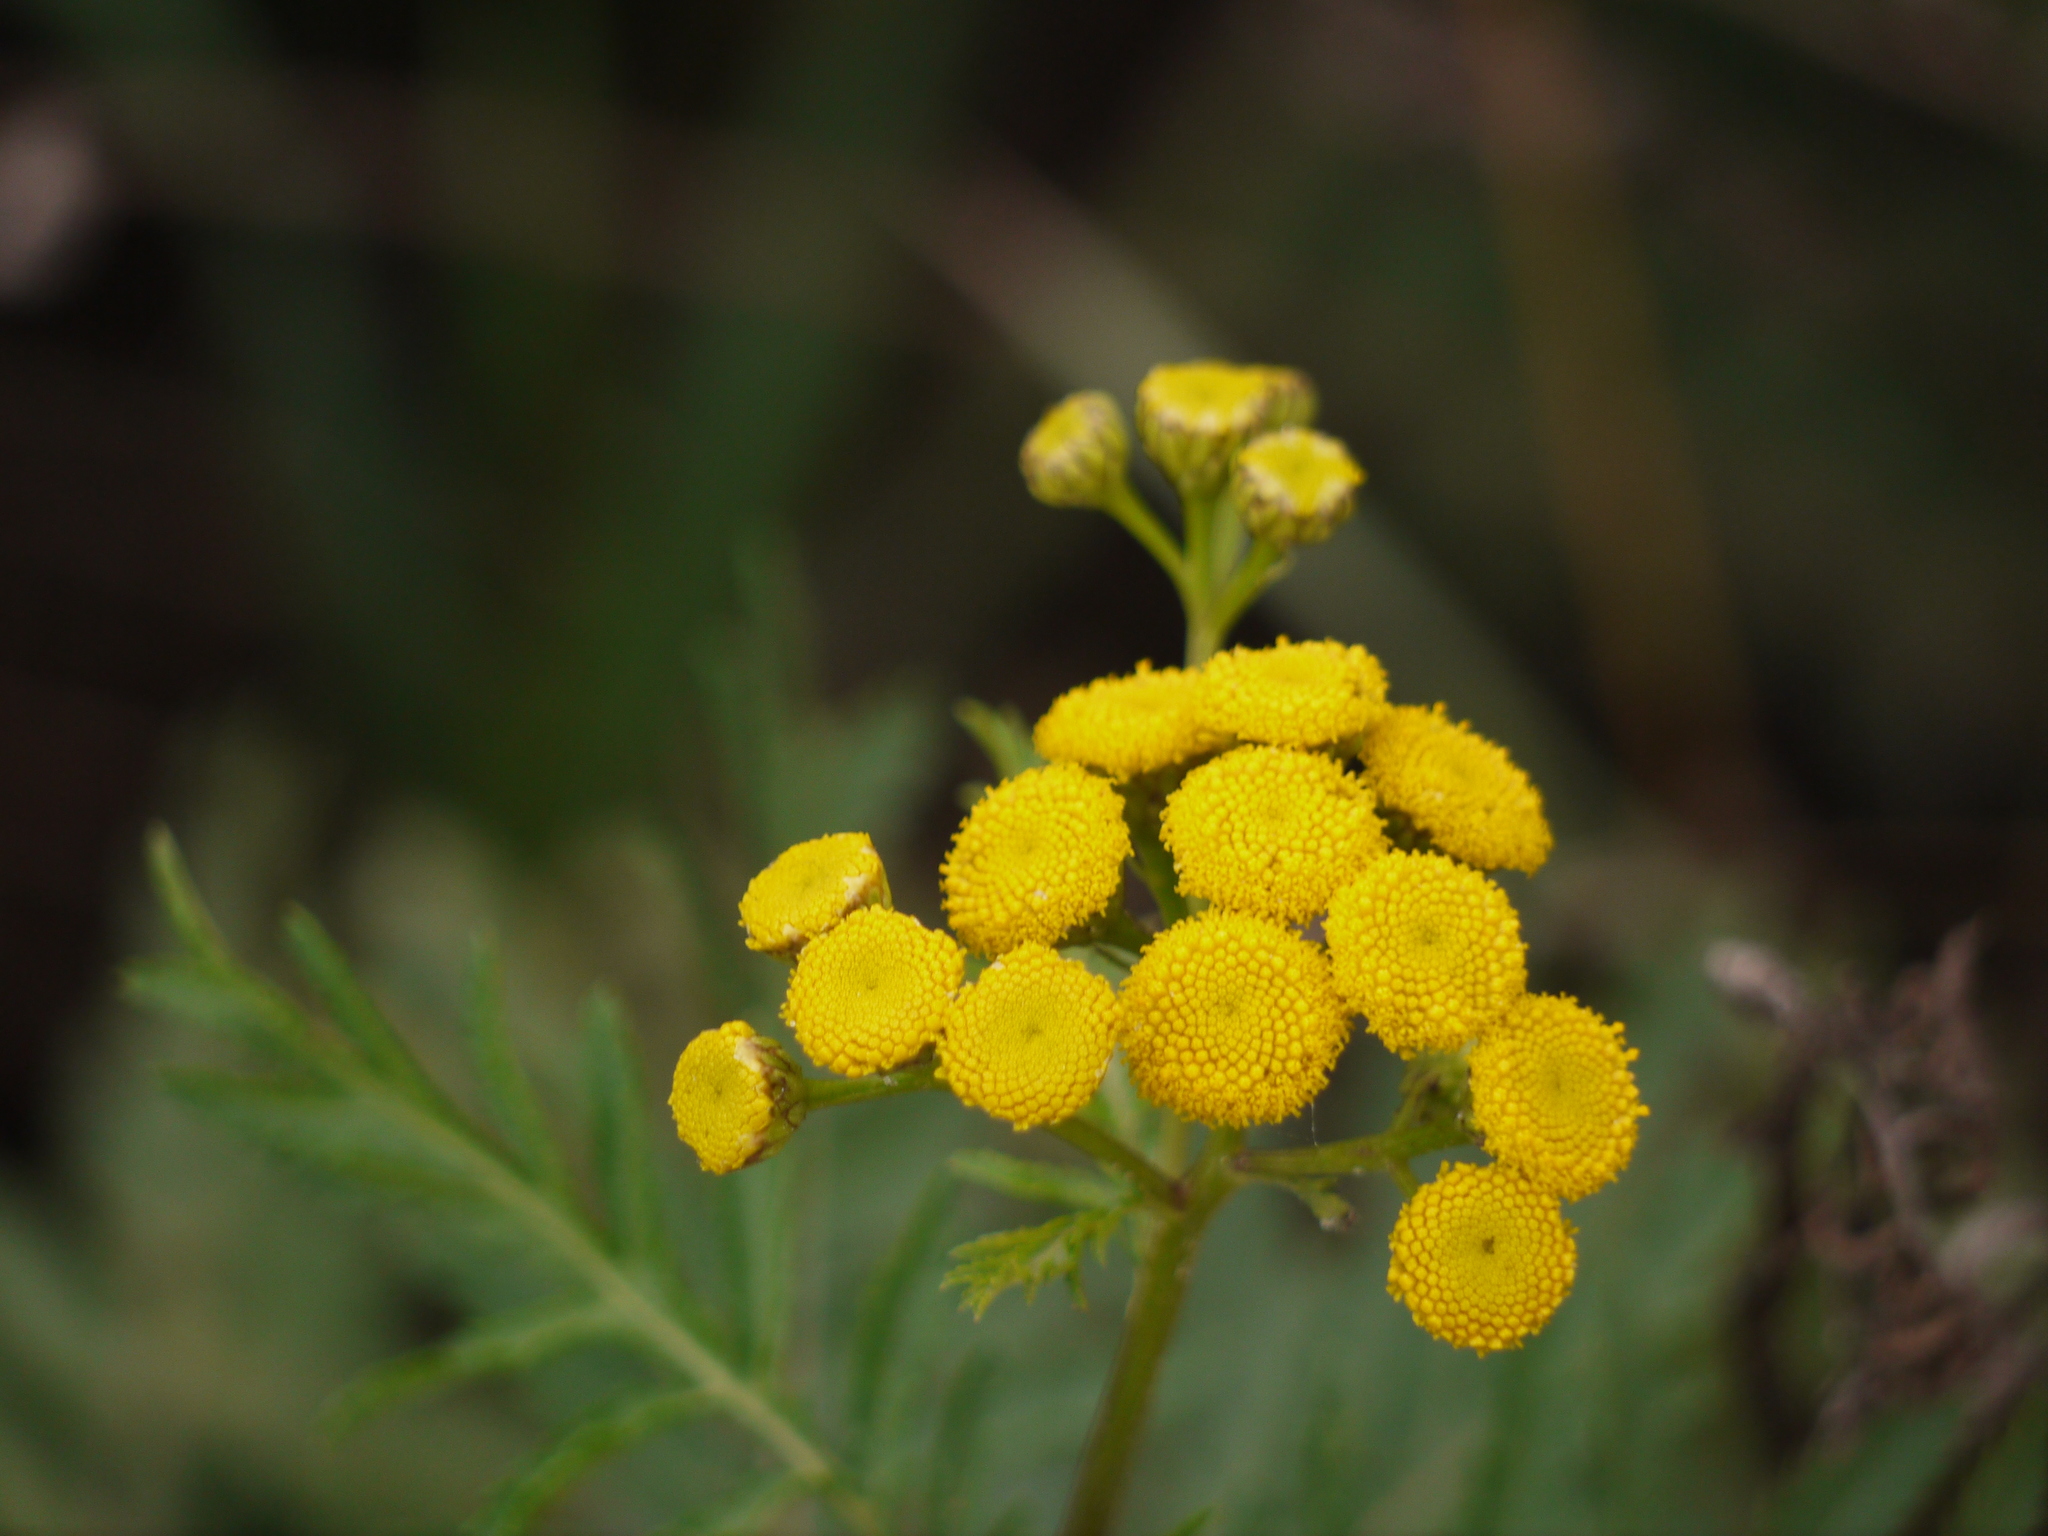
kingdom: Plantae
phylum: Tracheophyta
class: Magnoliopsida
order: Asterales
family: Asteraceae
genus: Tanacetum
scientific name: Tanacetum vulgare
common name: Common tansy
